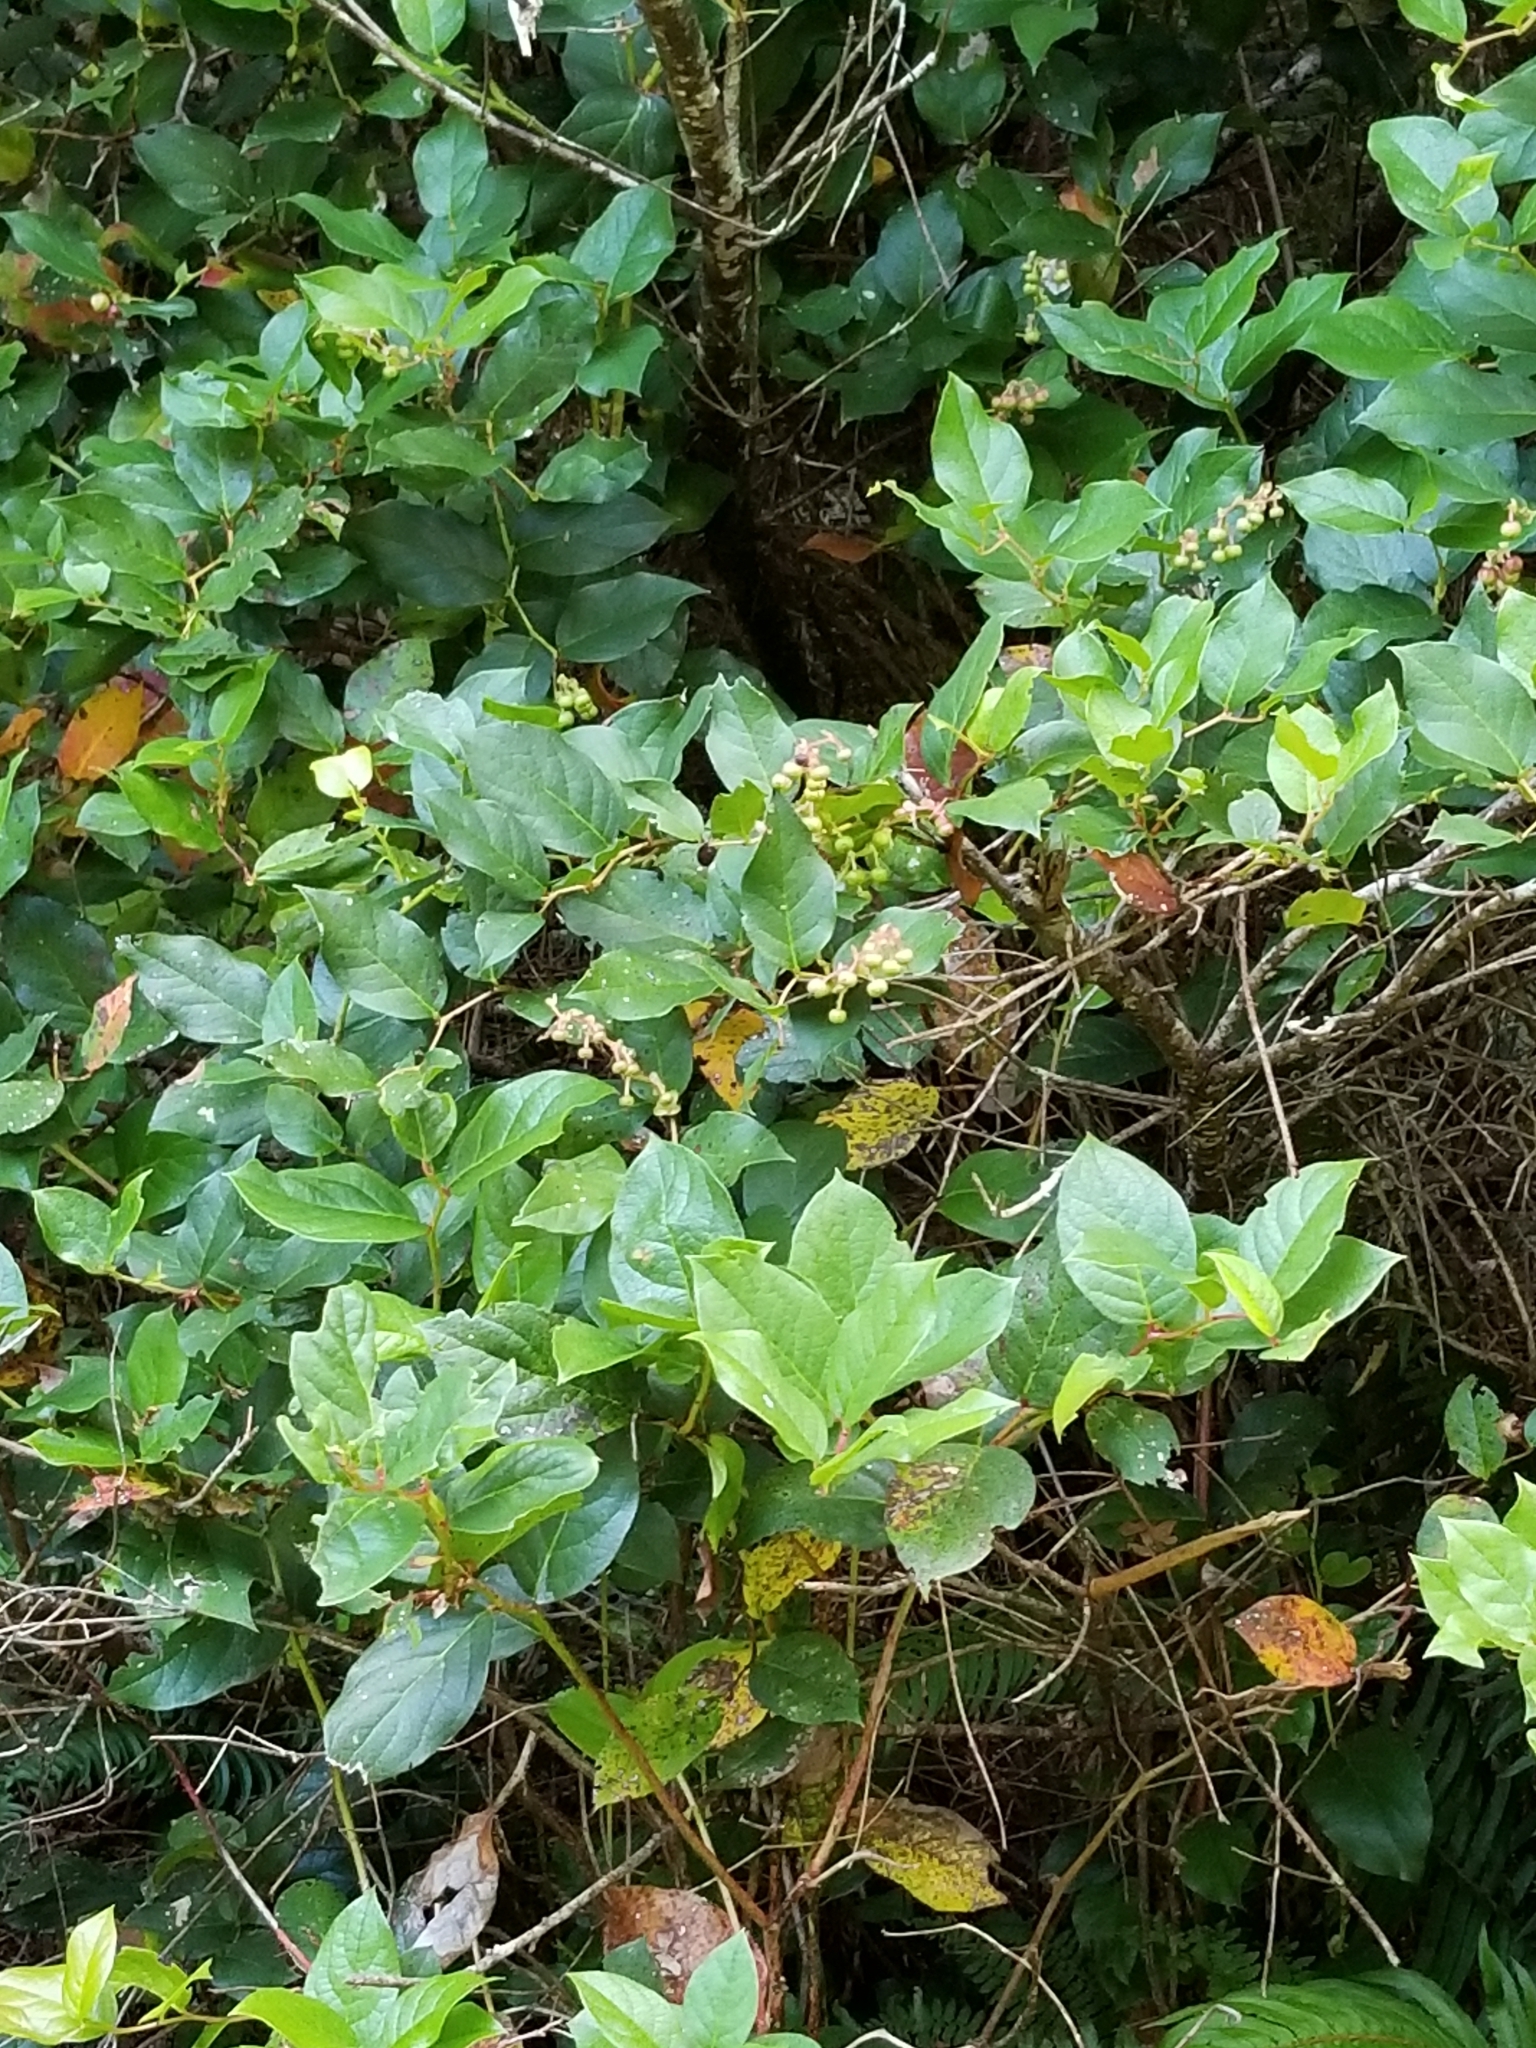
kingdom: Plantae
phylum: Tracheophyta
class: Magnoliopsida
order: Ericales
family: Ericaceae
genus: Gaultheria
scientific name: Gaultheria shallon
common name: Shallon
